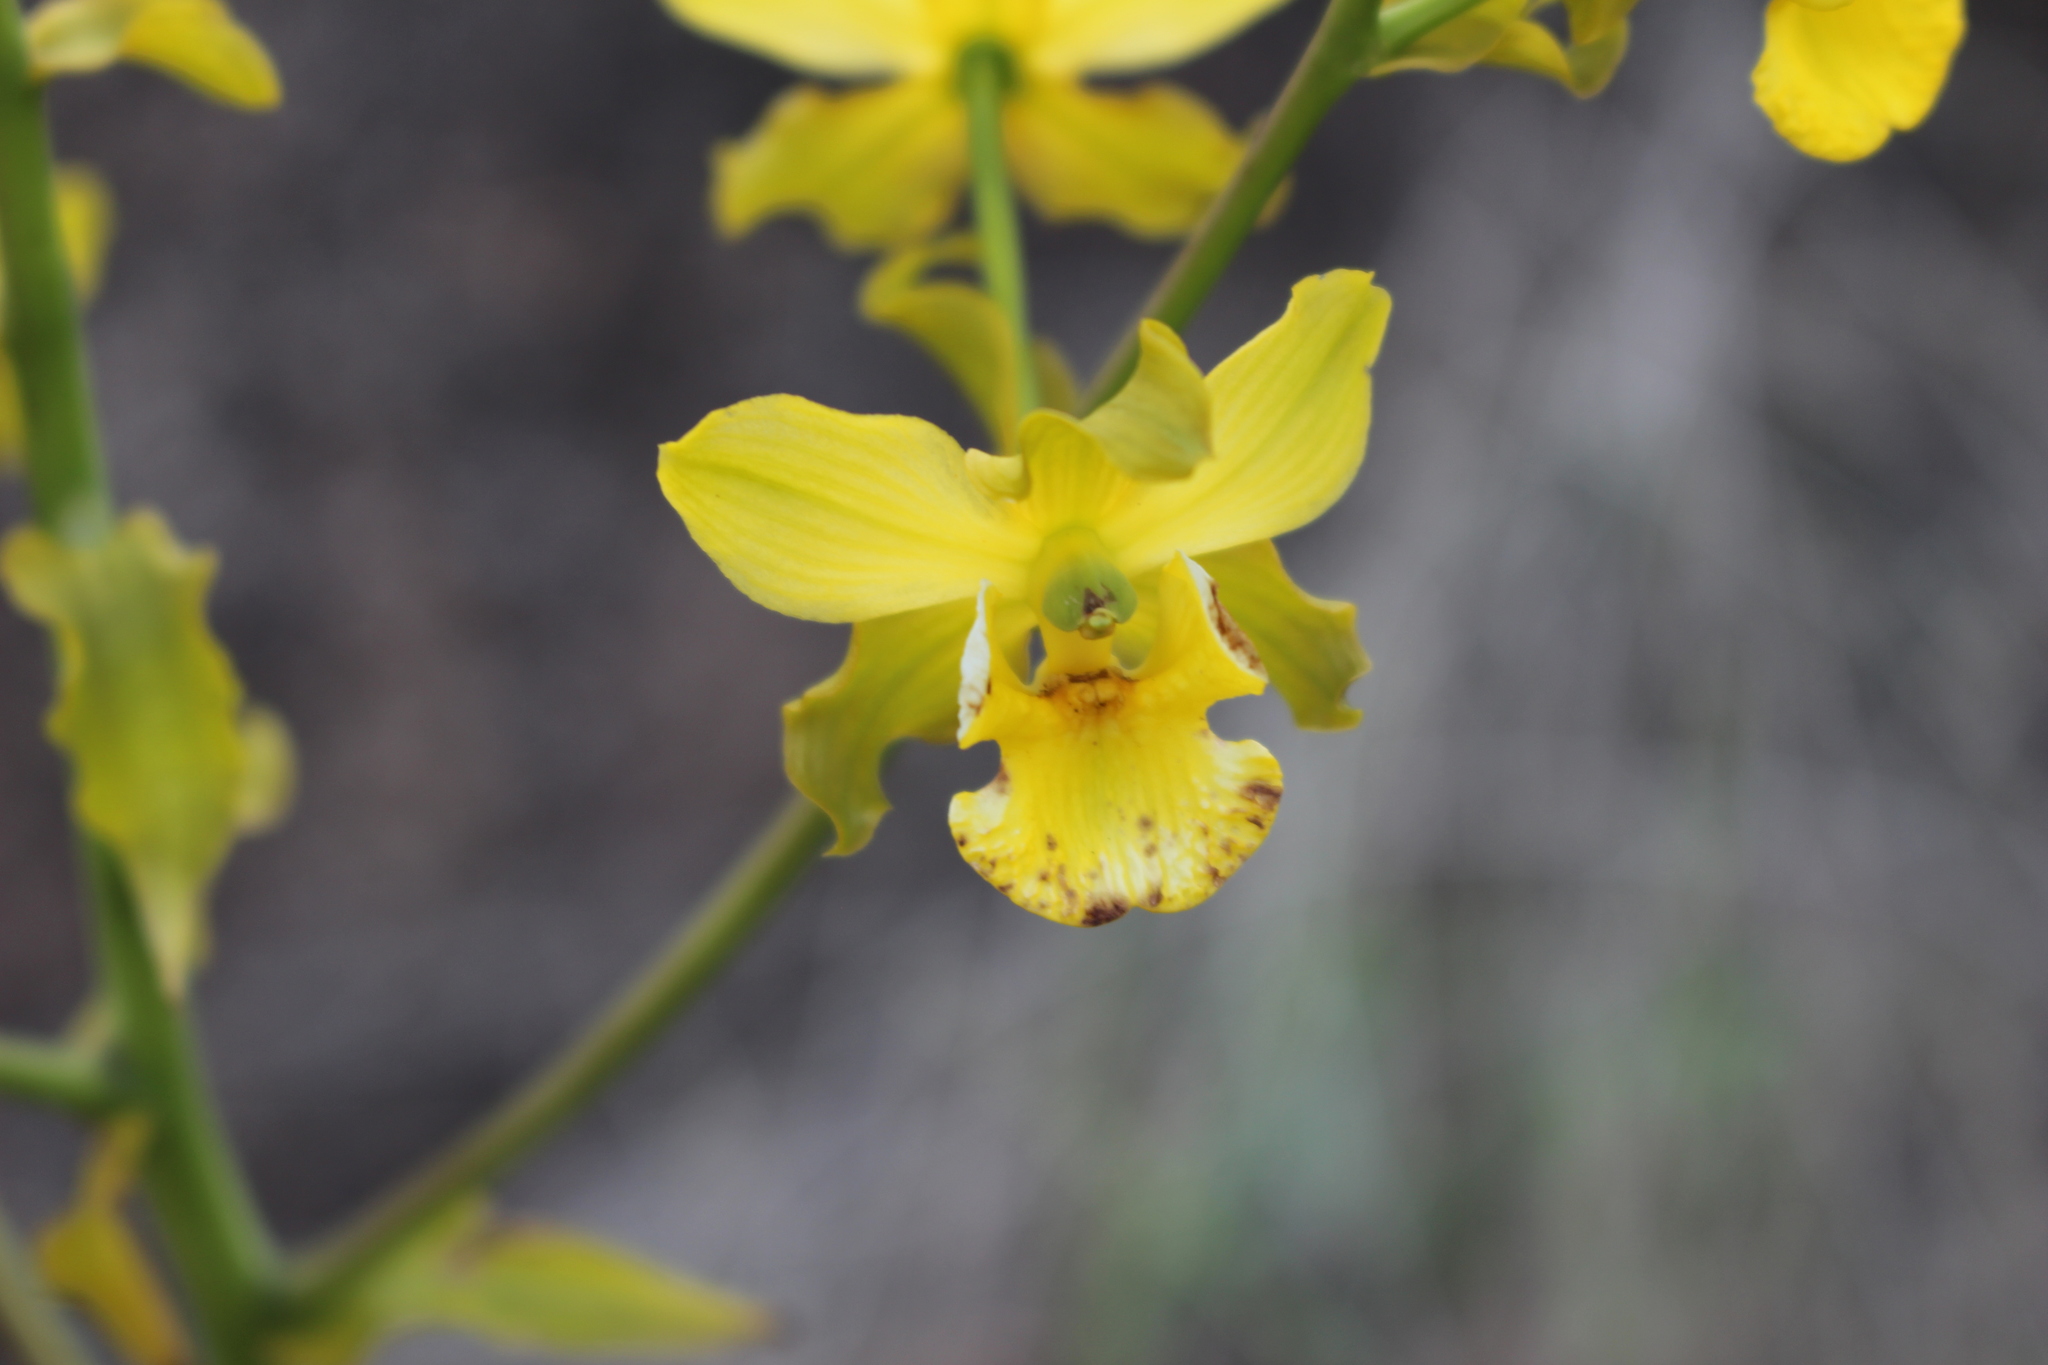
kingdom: Plantae
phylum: Tracheophyta
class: Liliopsida
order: Asparagales
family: Orchidaceae
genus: Cyrtopodium
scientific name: Cyrtopodium andersonii
